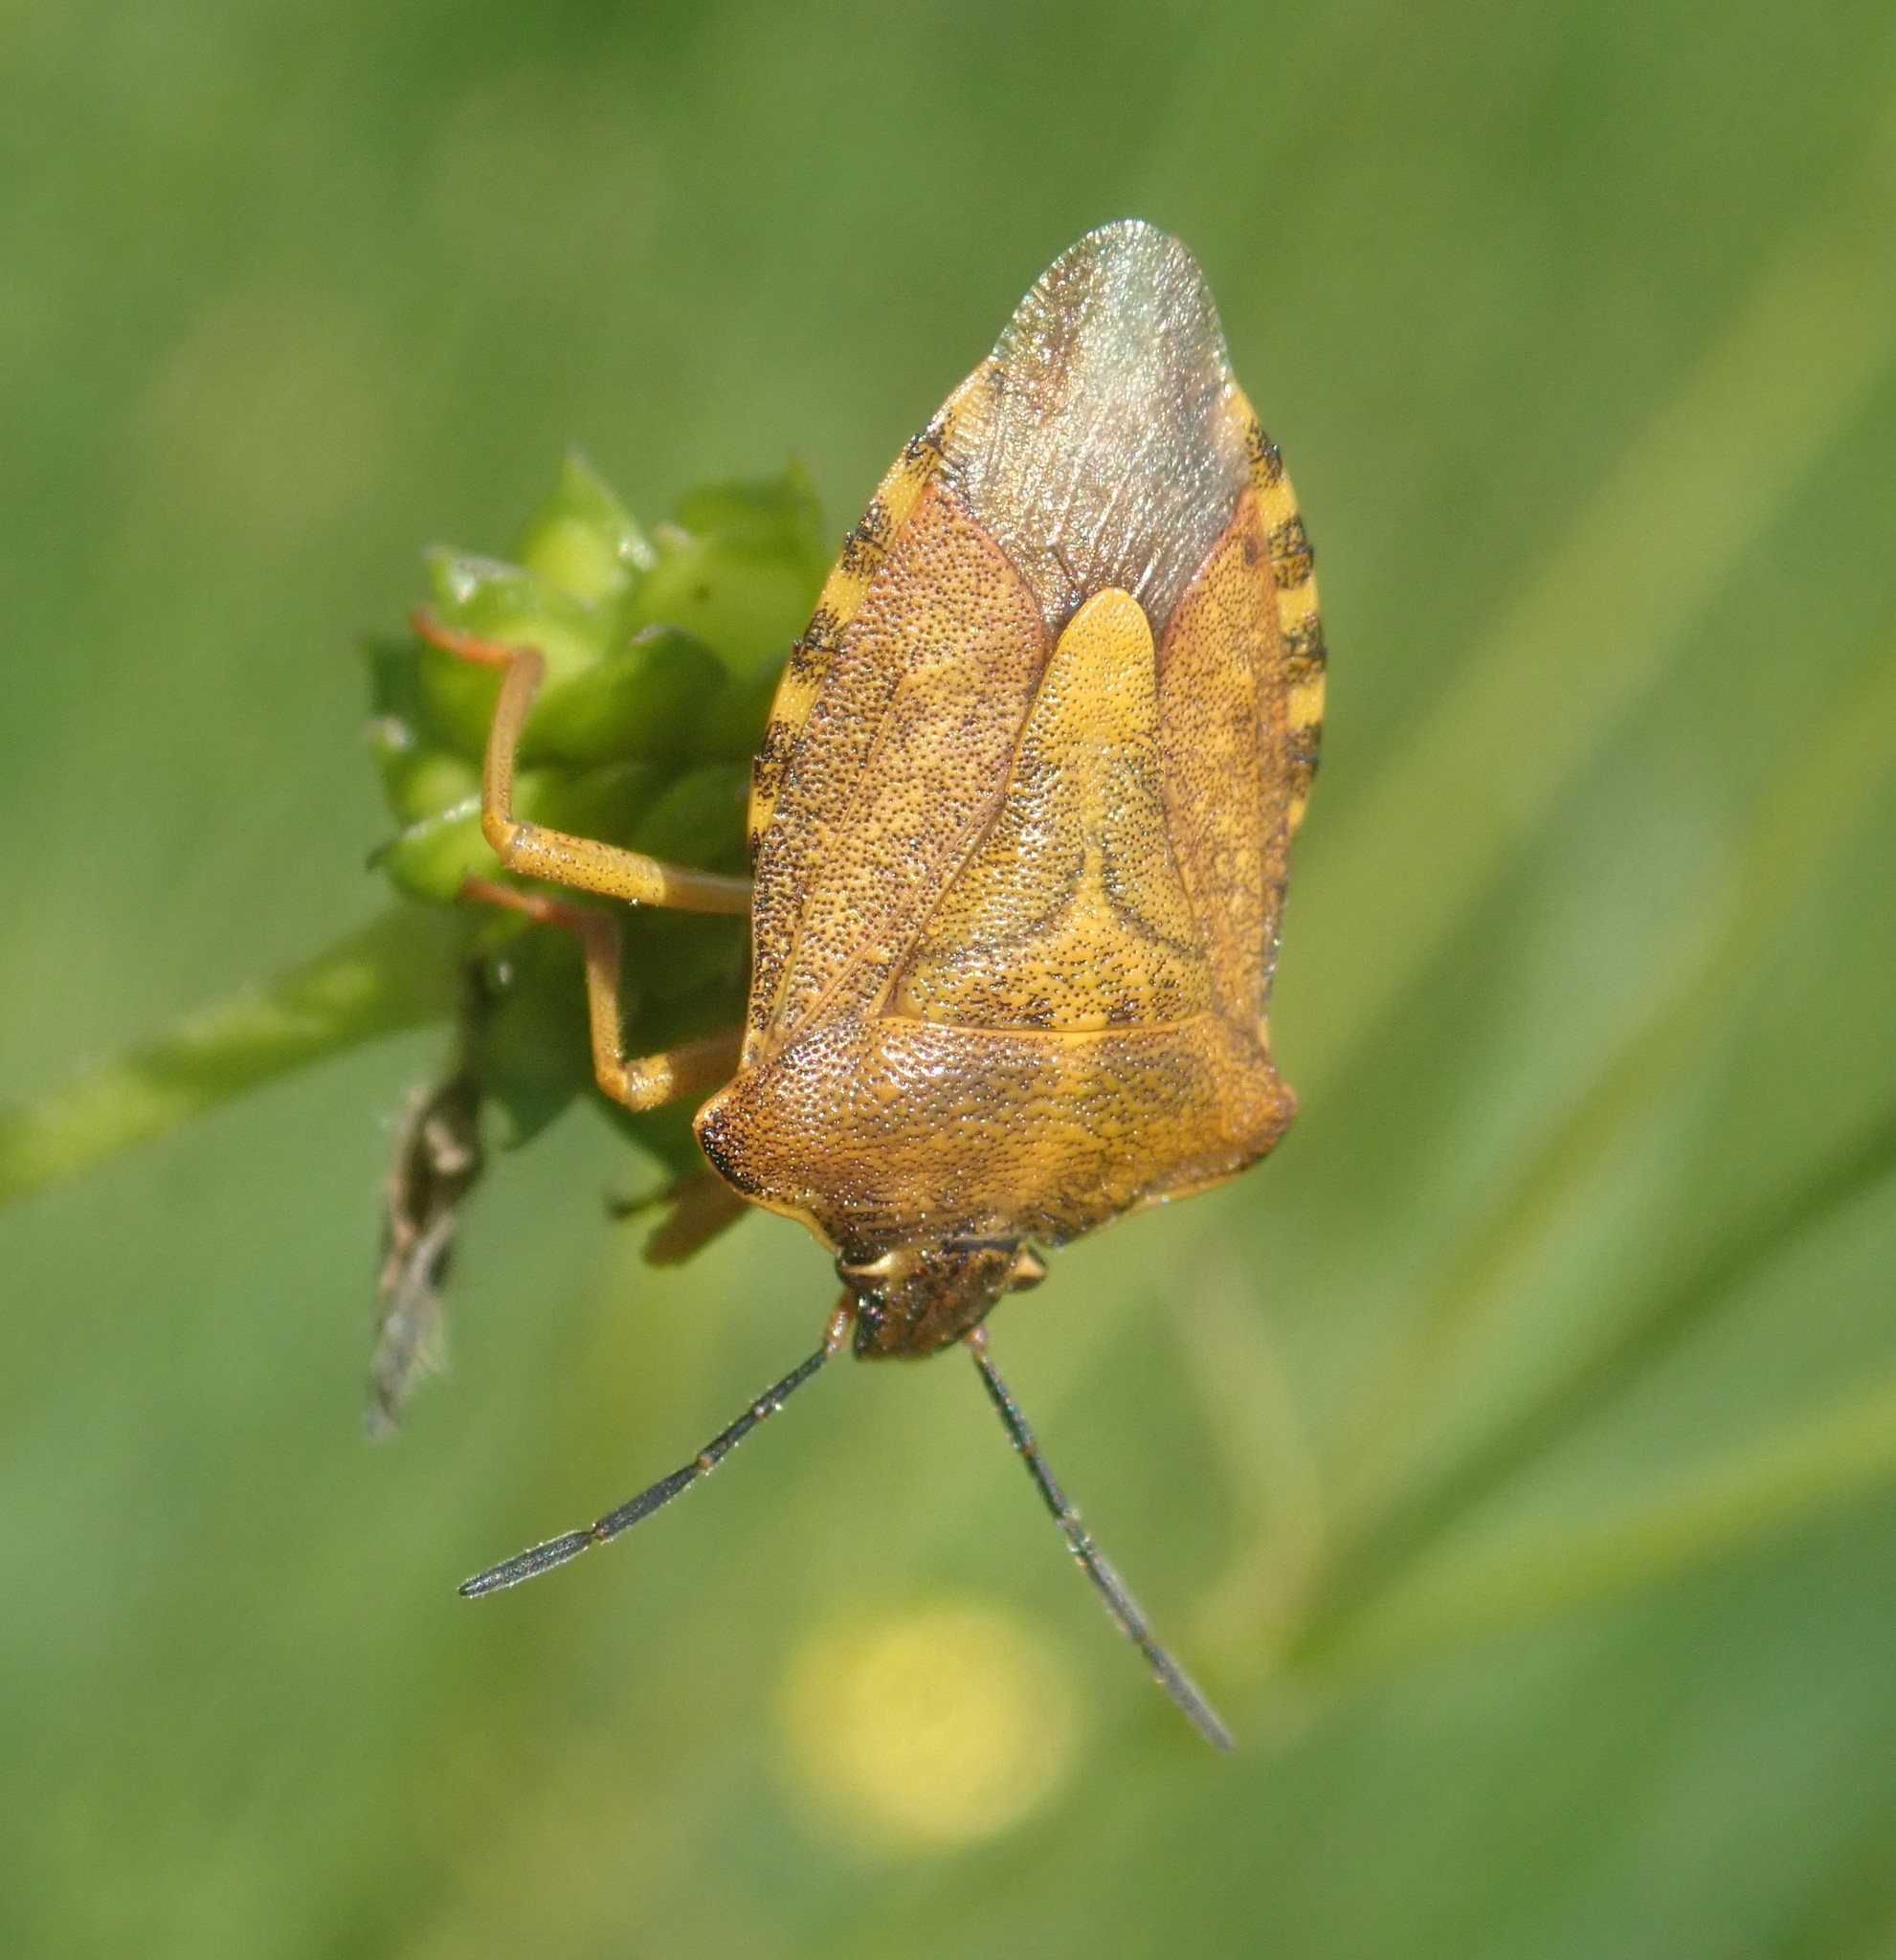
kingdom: Animalia
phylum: Arthropoda
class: Insecta
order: Hemiptera
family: Pentatomidae
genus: Carpocoris
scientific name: Carpocoris purpureipennis
